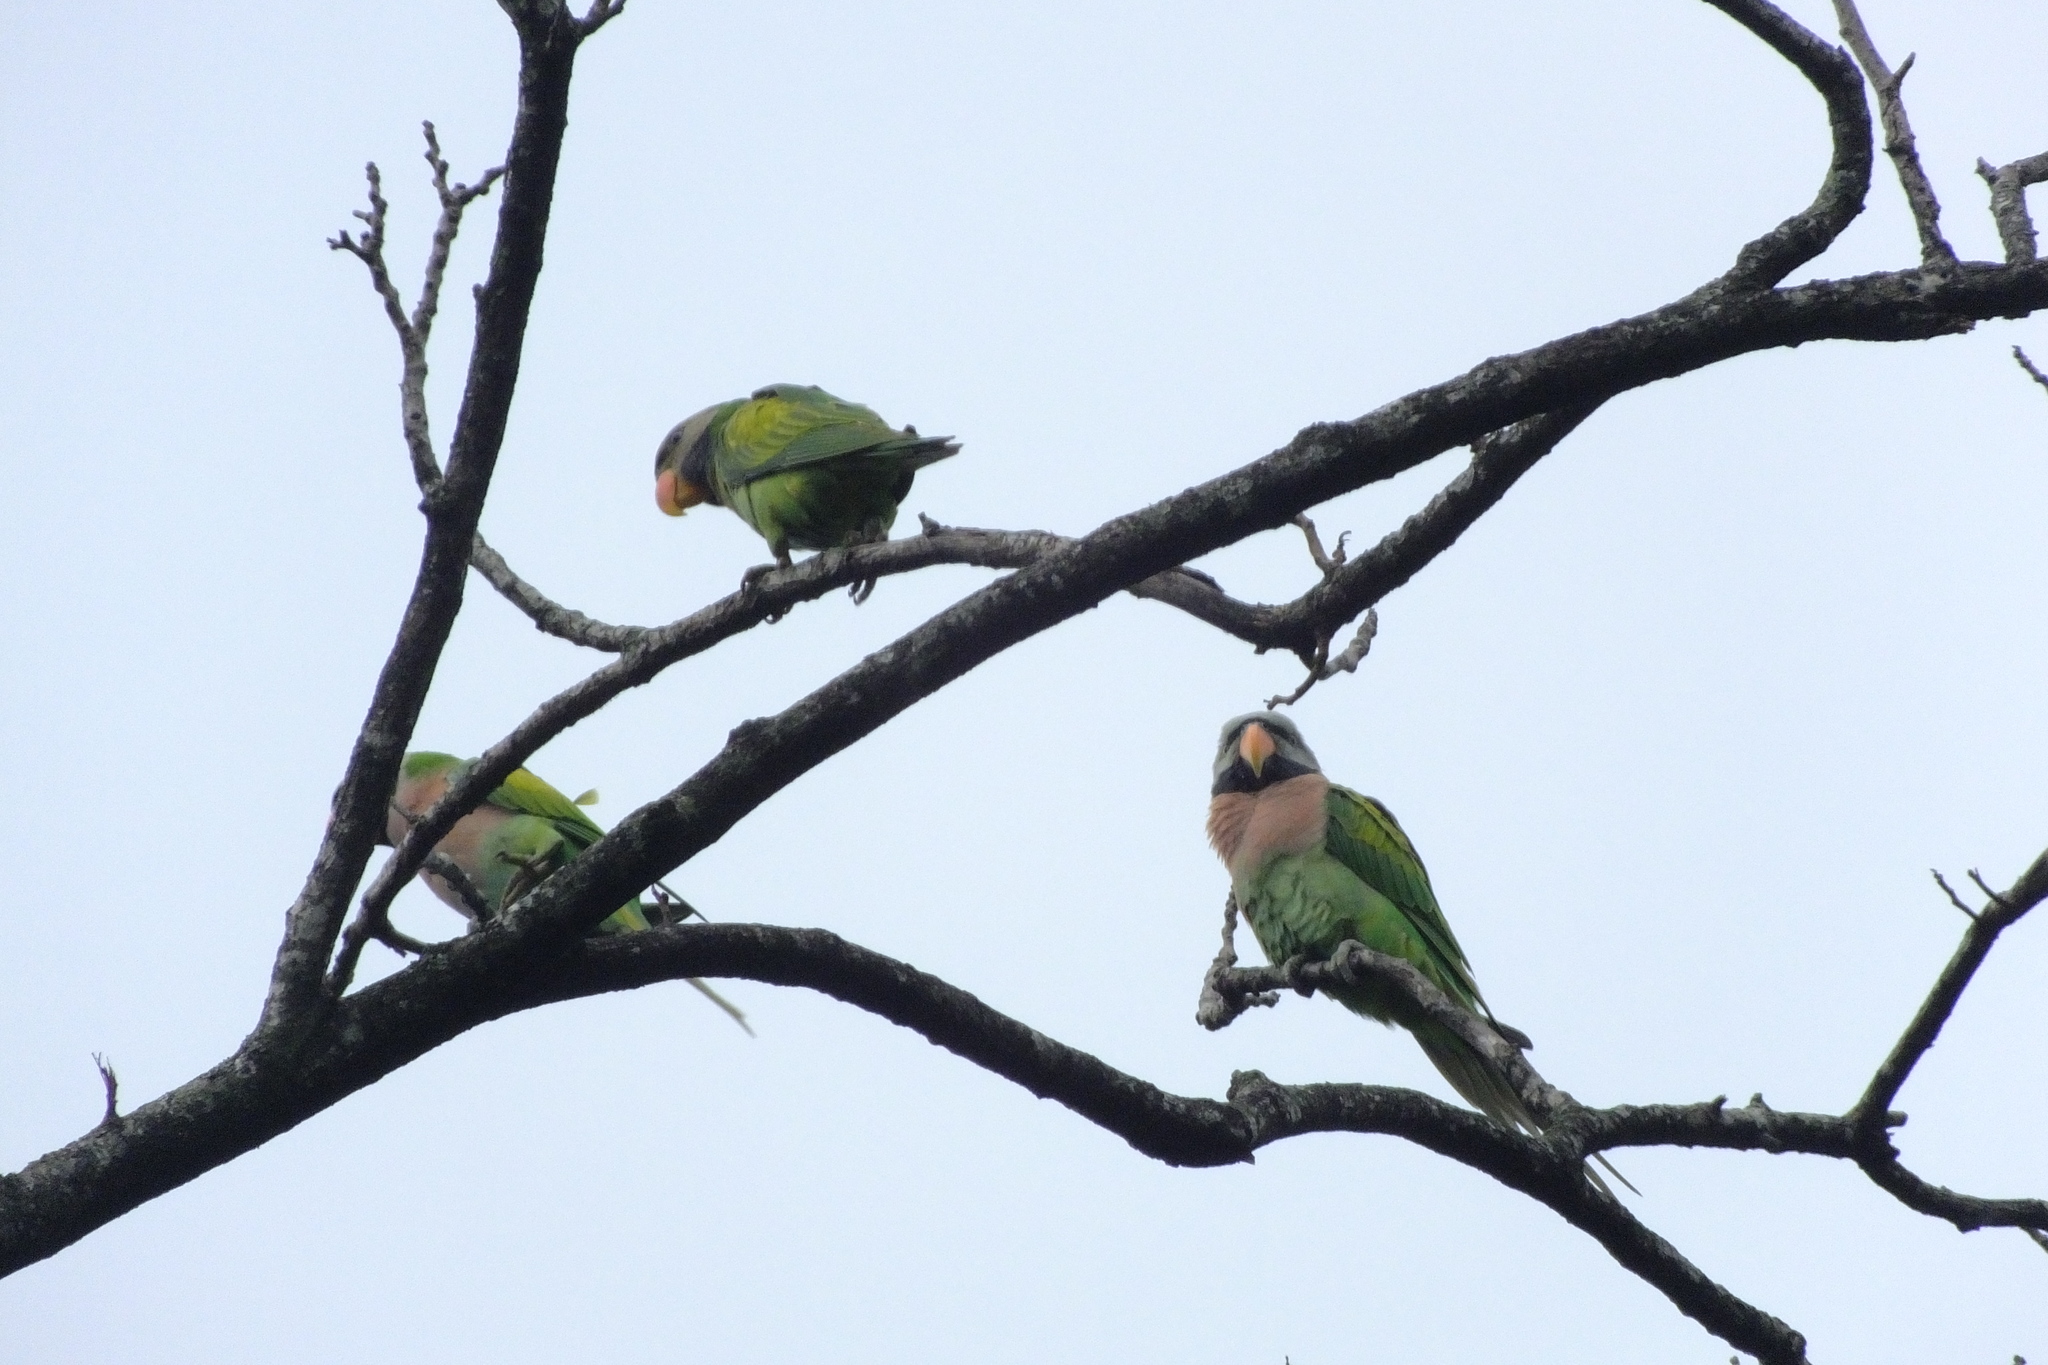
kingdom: Animalia
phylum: Chordata
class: Aves
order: Psittaciformes
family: Psittacidae
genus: Psittacula
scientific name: Psittacula alexandri
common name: Red-breasted parakeet
